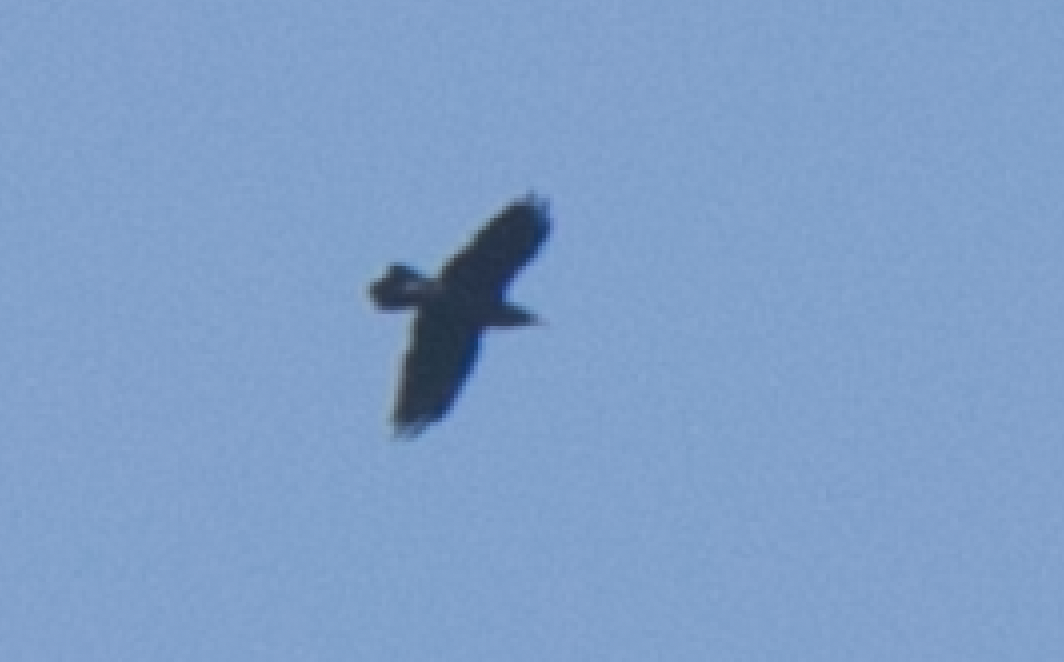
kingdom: Animalia
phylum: Chordata
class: Aves
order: Passeriformes
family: Corvidae
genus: Corvus
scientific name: Corvus corax
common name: Common raven
